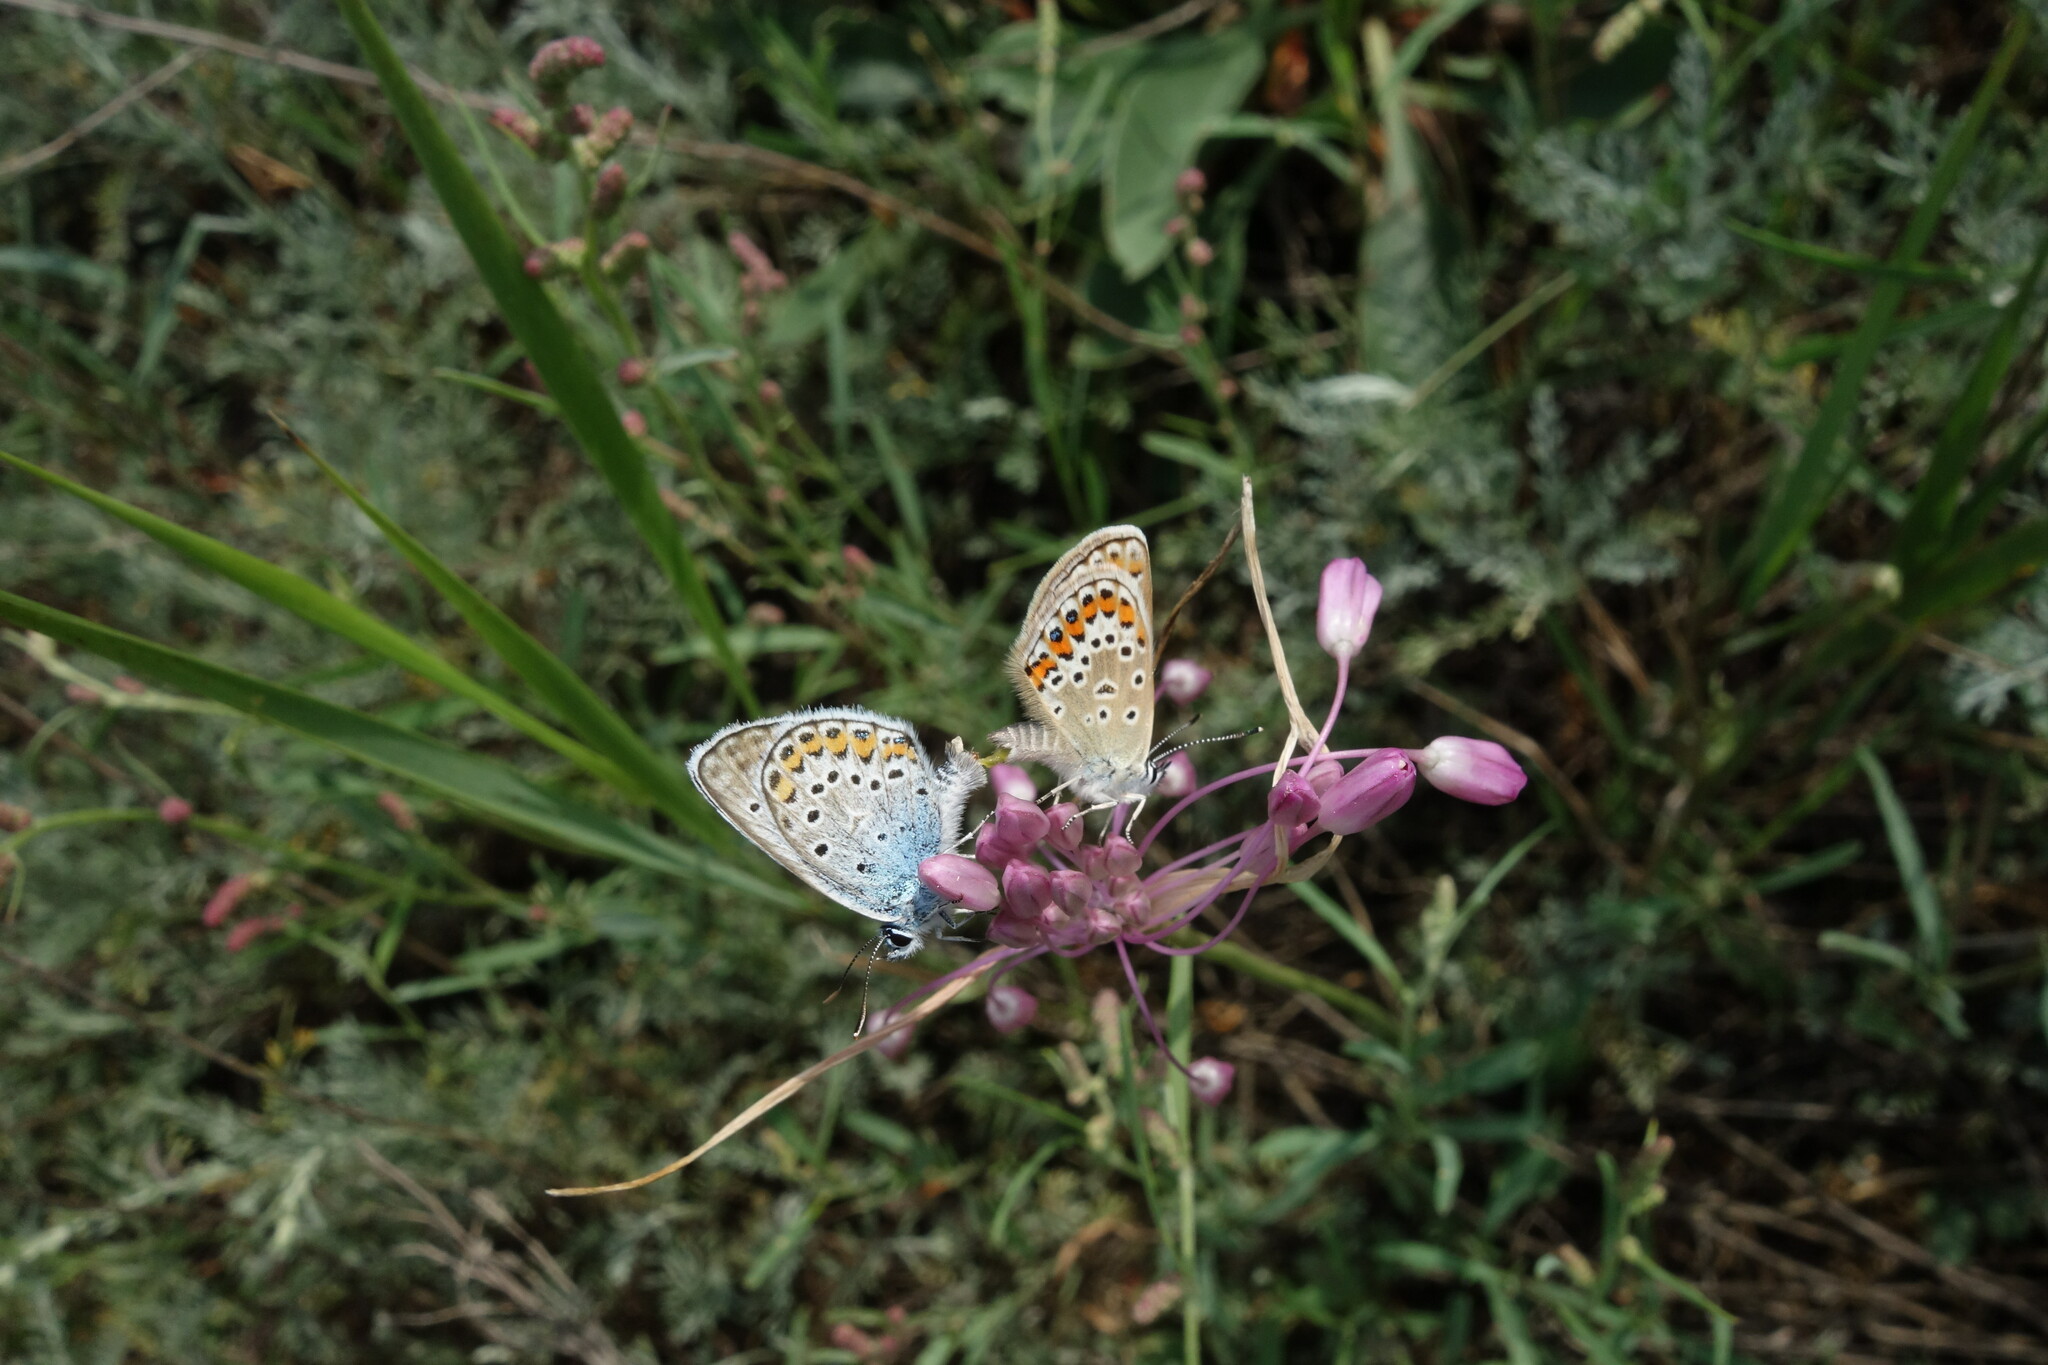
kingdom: Animalia
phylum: Arthropoda
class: Insecta
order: Lepidoptera
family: Lycaenidae
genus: Plebejus
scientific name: Plebejus argus
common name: Silver-studded blue
